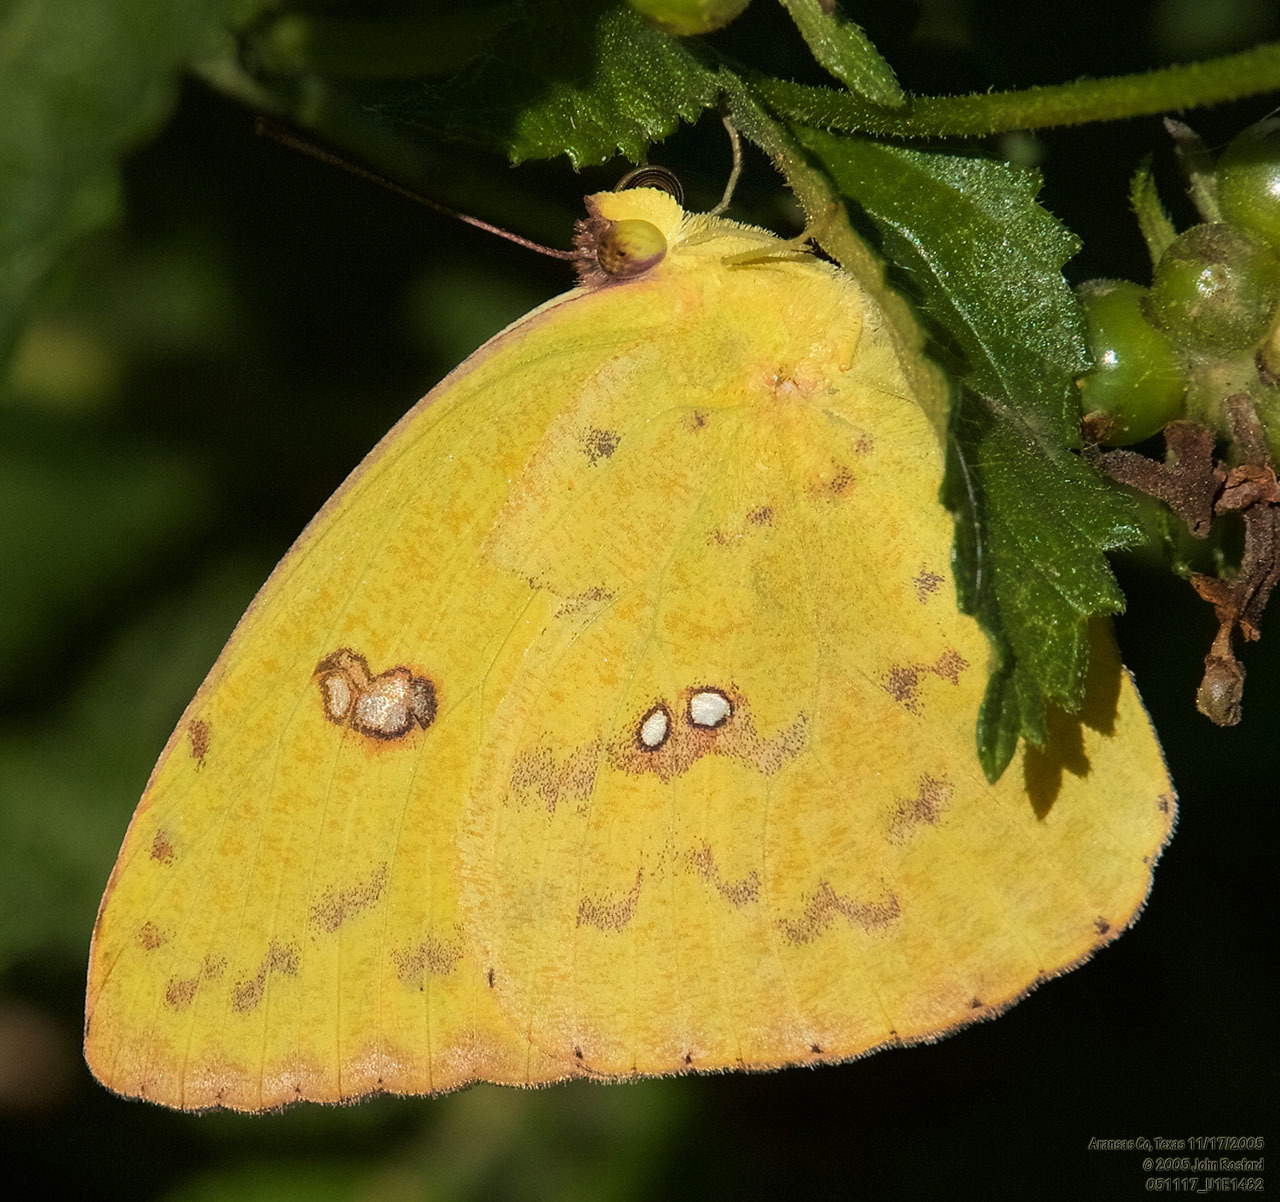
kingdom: Animalia
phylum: Arthropoda
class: Insecta
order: Lepidoptera
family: Pieridae
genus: Phoebis
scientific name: Phoebis sennae
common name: Cloudless sulphur
